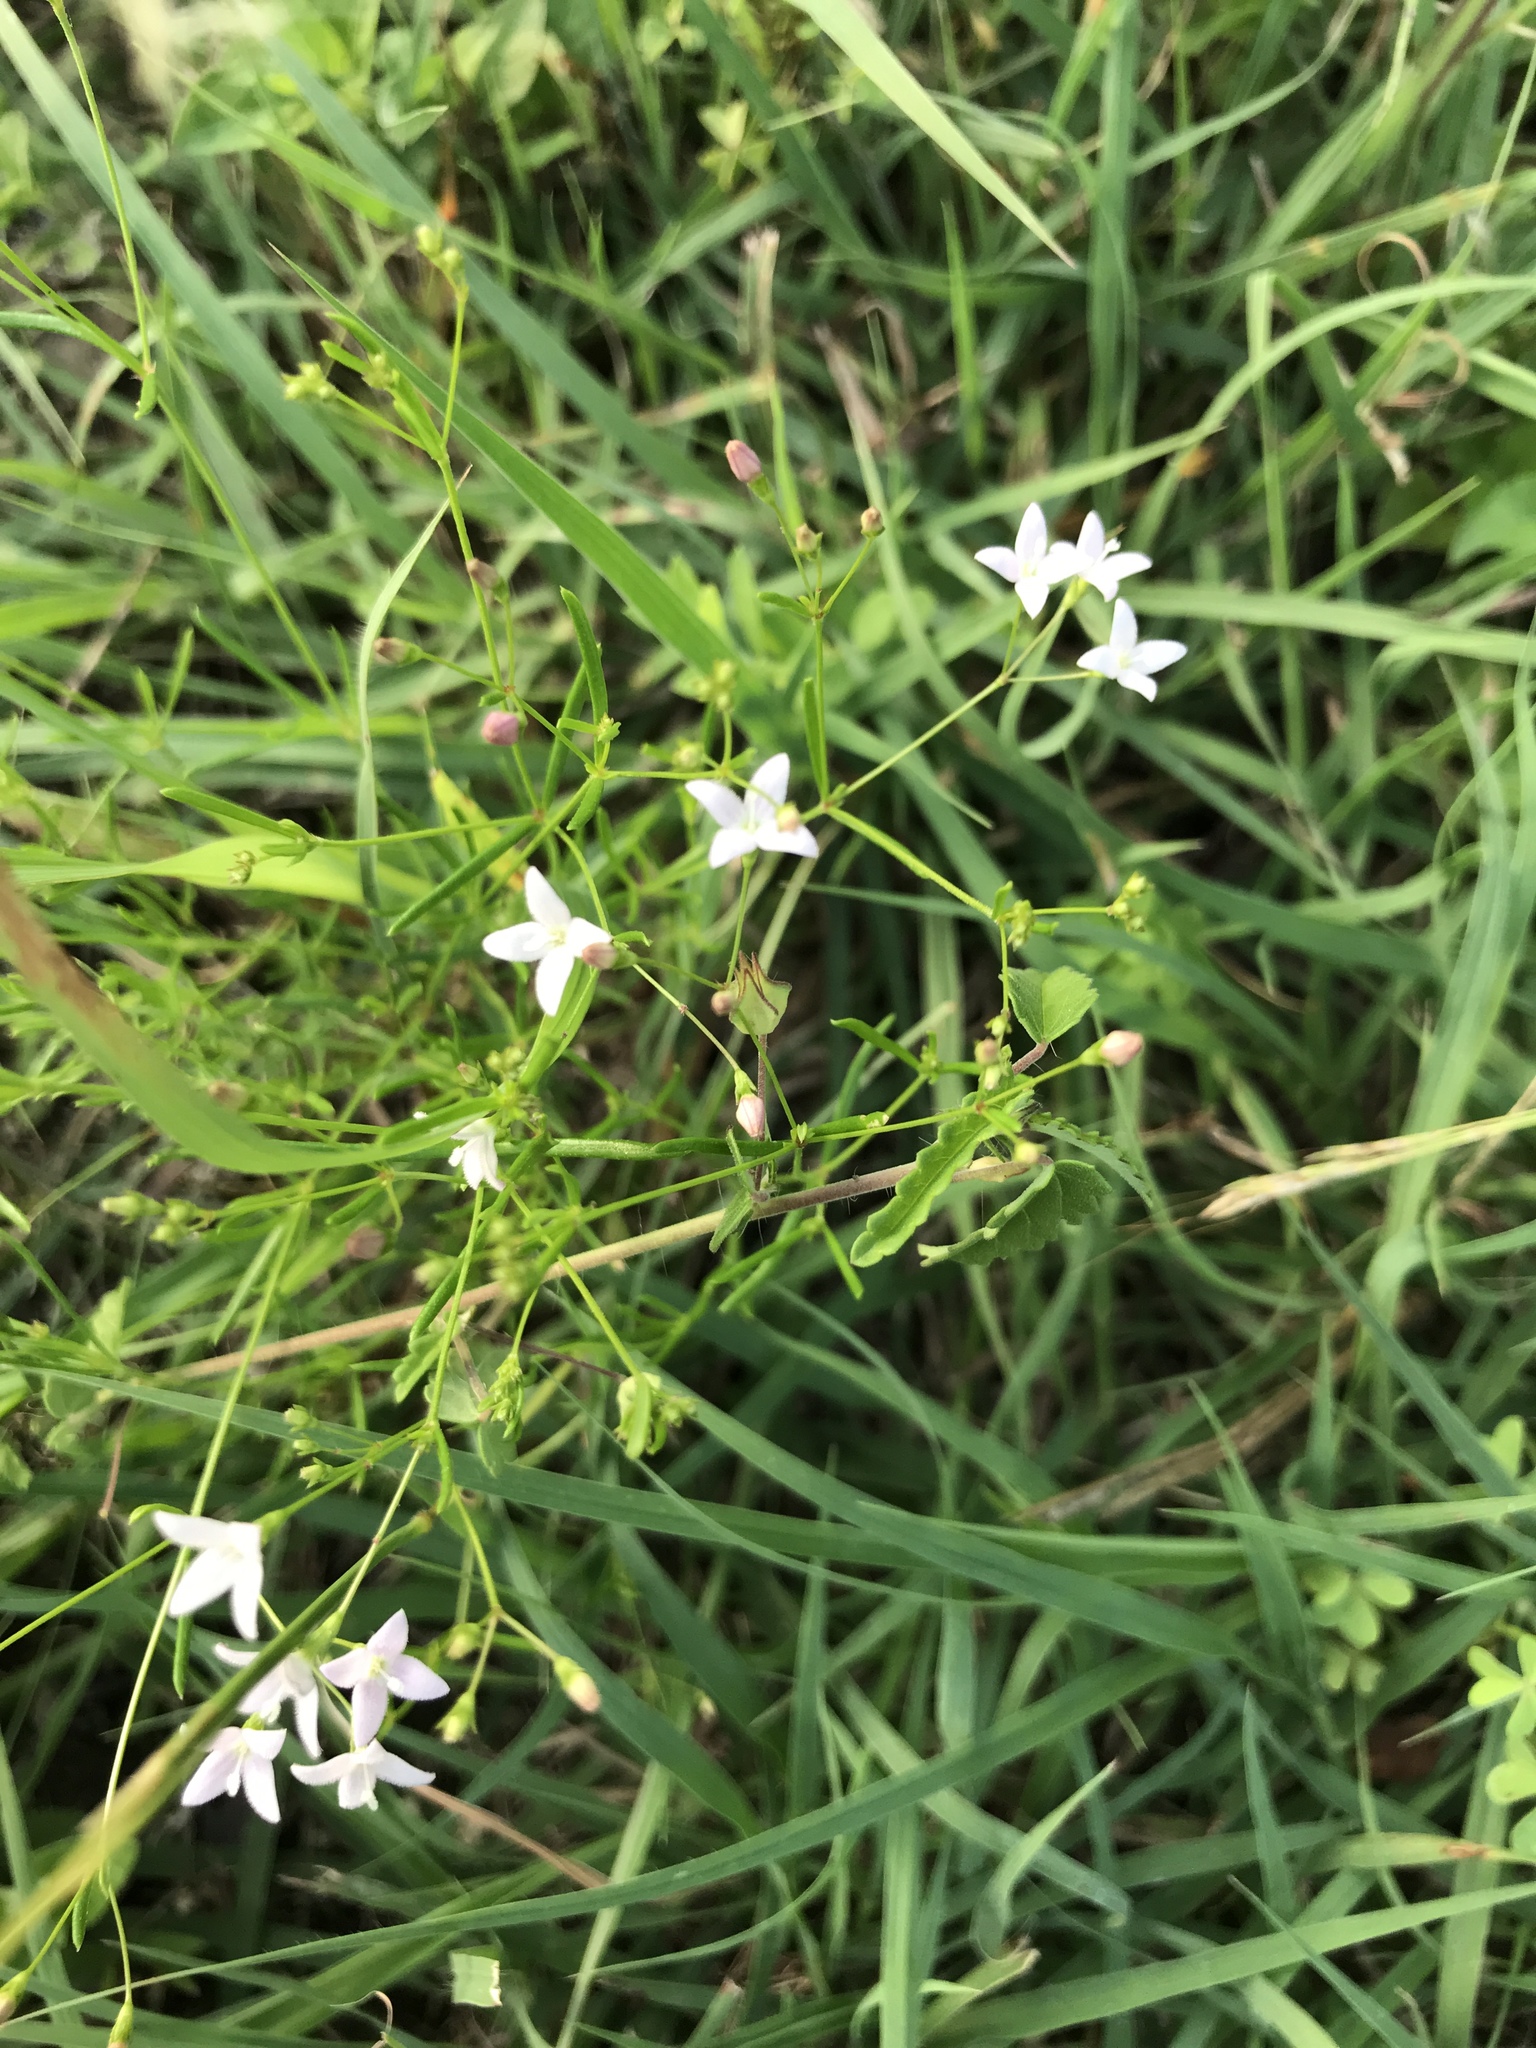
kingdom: Plantae
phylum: Tracheophyta
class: Magnoliopsida
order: Gentianales
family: Rubiaceae
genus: Stenaria
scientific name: Stenaria nigricans
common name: Diamondflowers
